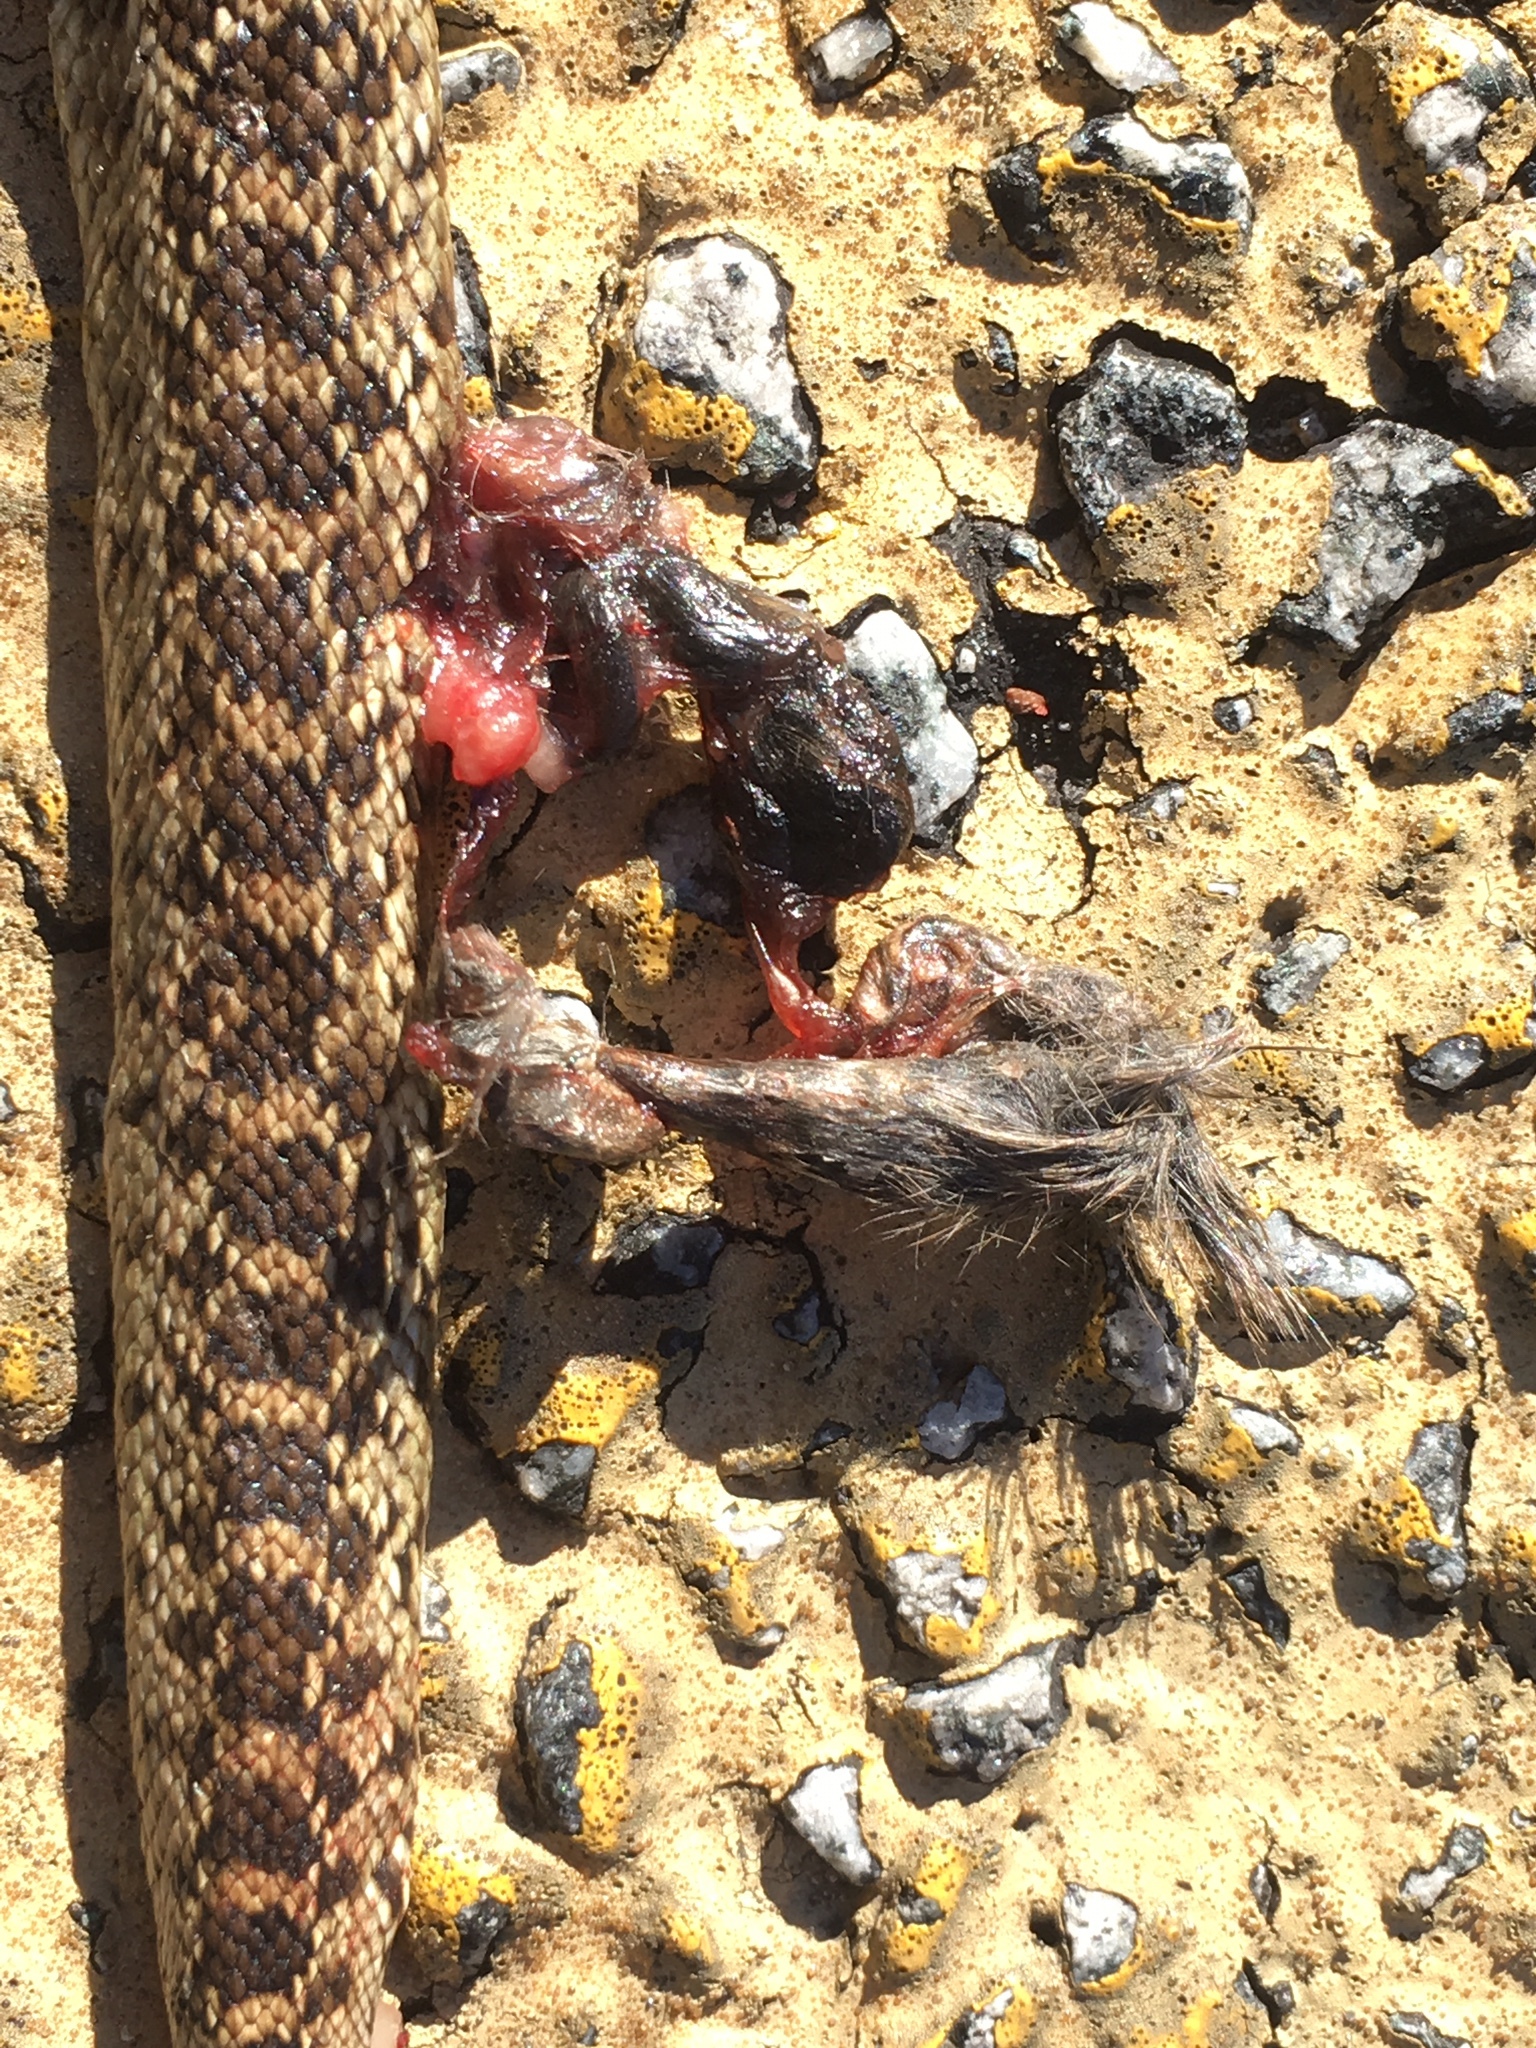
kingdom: Animalia
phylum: Chordata
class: Squamata
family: Colubridae
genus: Pituophis
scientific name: Pituophis catenifer
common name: Gopher snake
